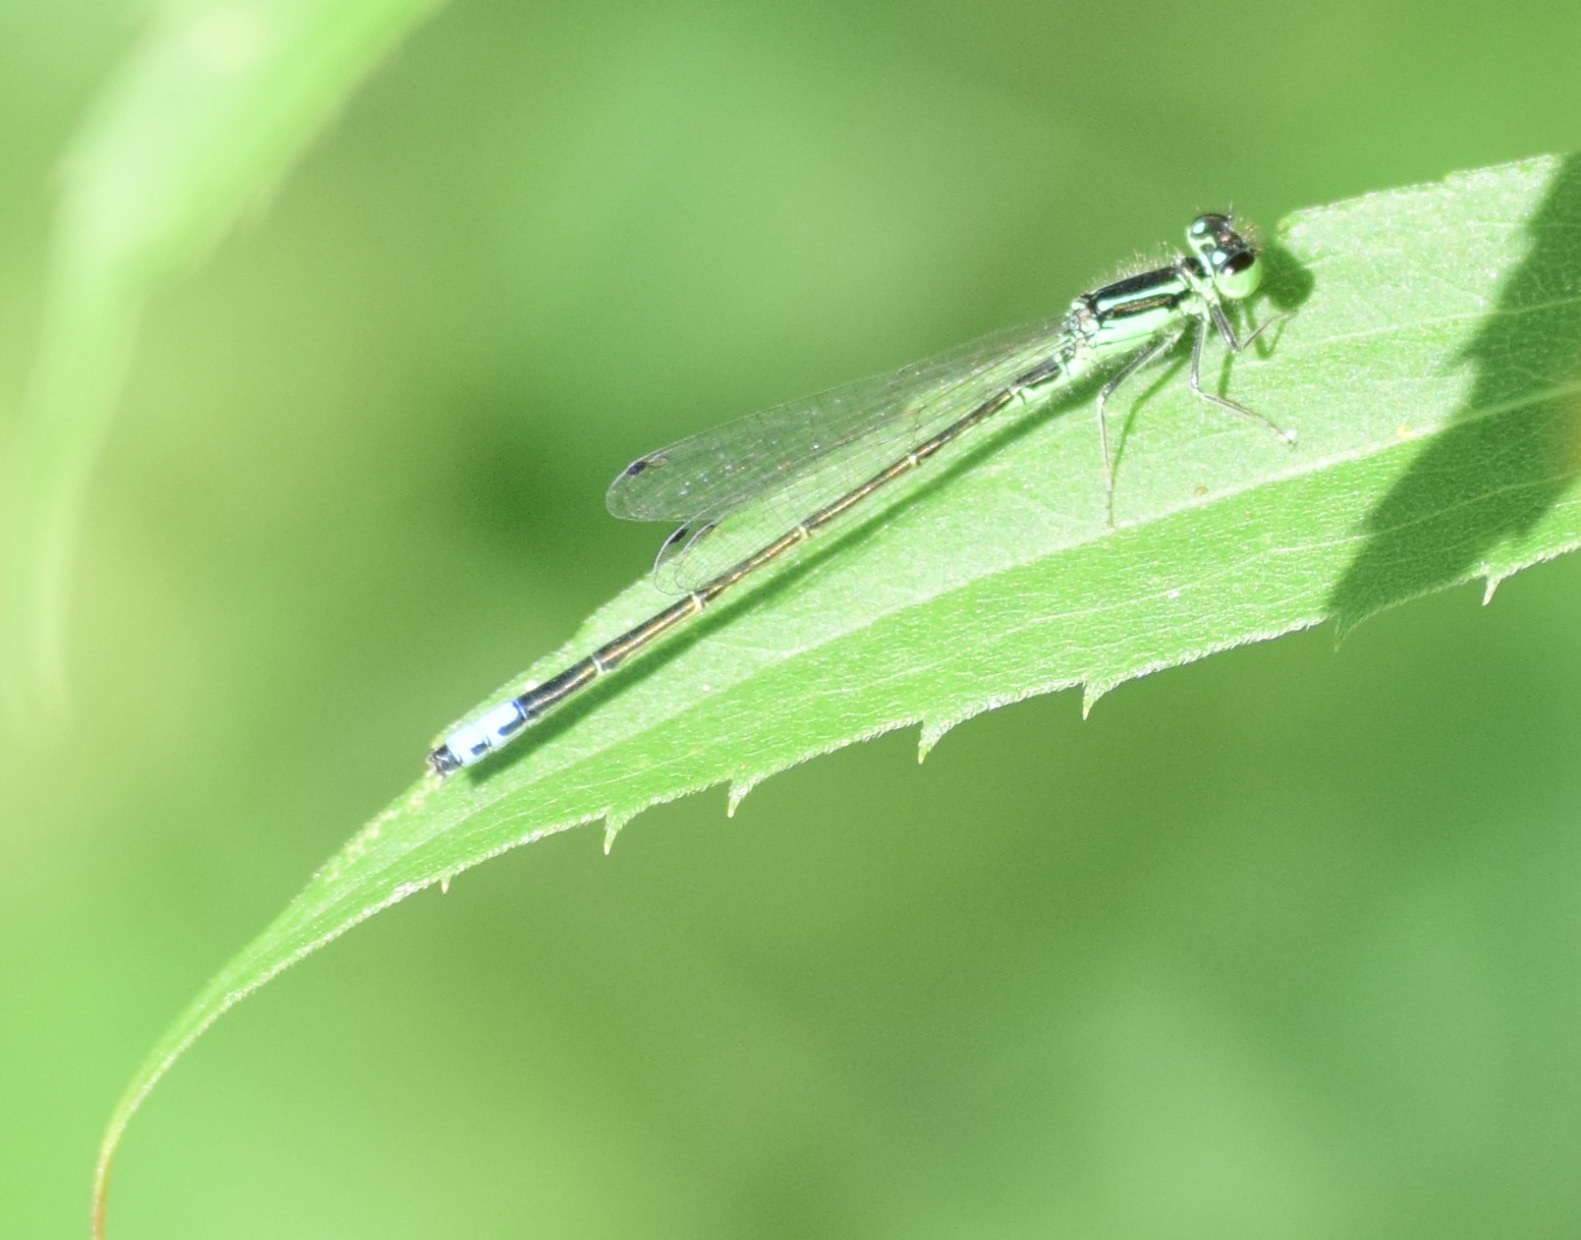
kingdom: Animalia
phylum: Arthropoda
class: Insecta
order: Odonata
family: Coenagrionidae
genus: Ischnura
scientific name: Ischnura verticalis
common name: Eastern forktail
